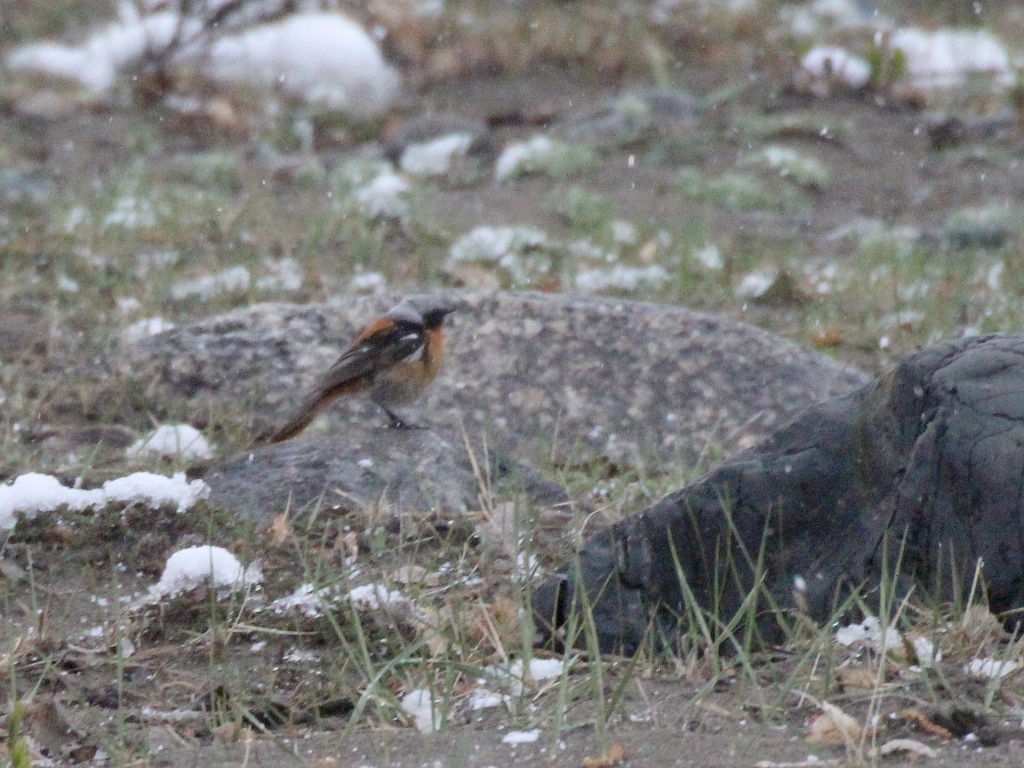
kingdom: Animalia
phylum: Chordata
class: Aves
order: Passeriformes
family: Muscicapidae
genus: Phoenicurus
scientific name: Phoenicurus erythronotus
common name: Eversmann's redstart
